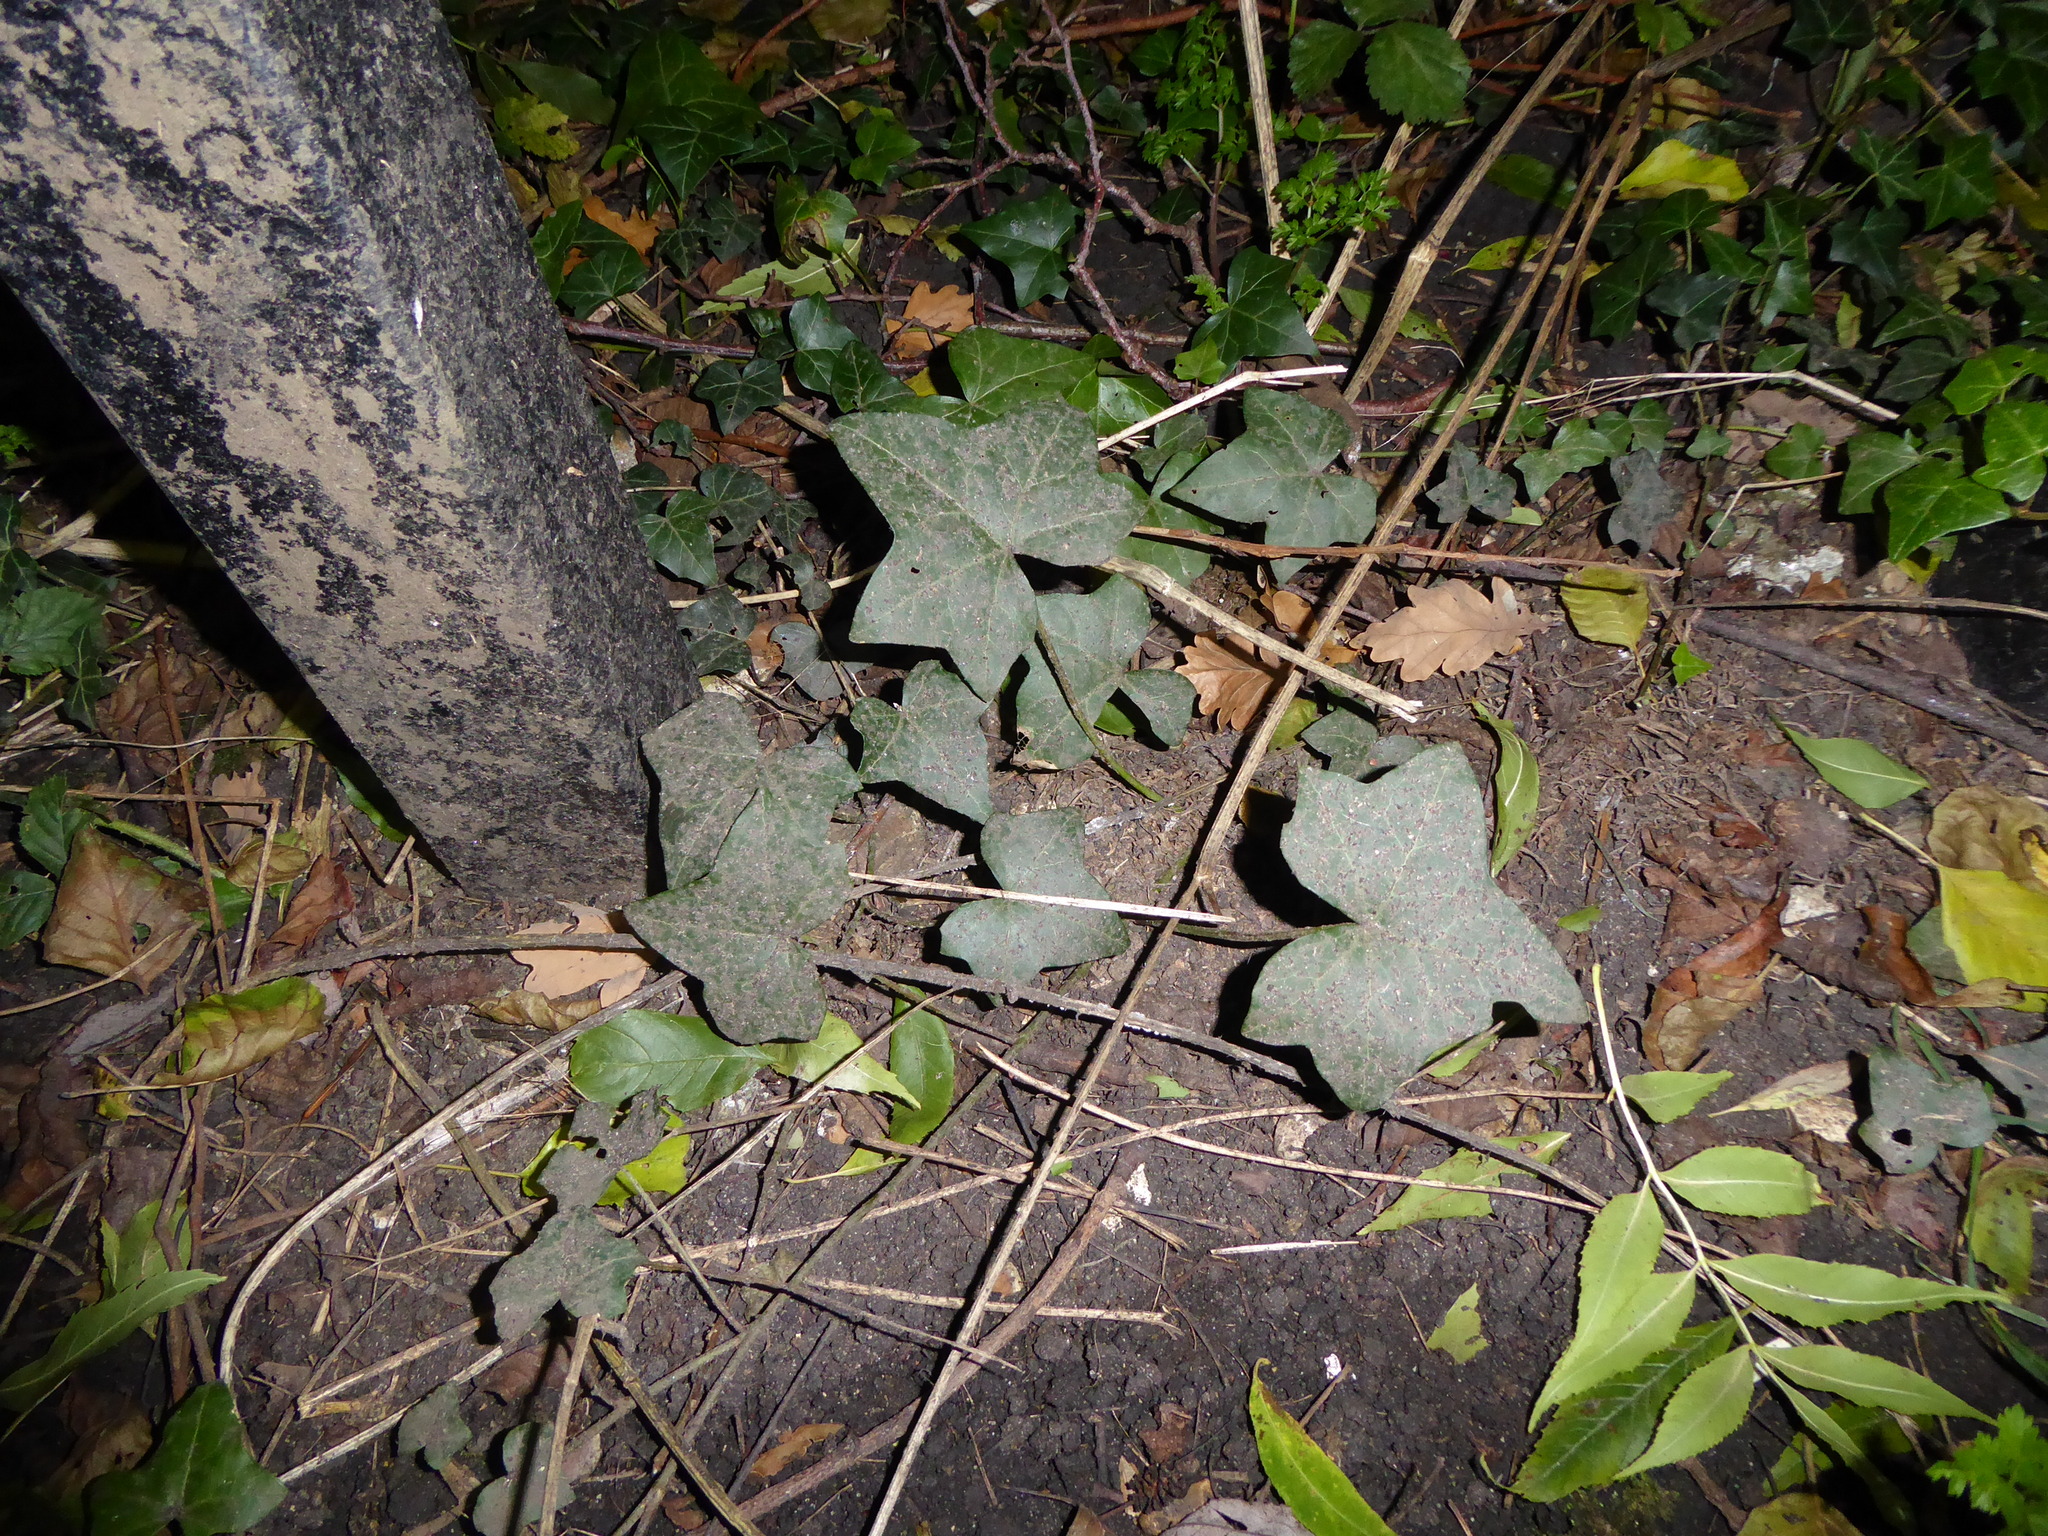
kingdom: Plantae
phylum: Tracheophyta
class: Magnoliopsida
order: Apiales
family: Araliaceae
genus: Hedera
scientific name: Hedera helix
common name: Ivy
